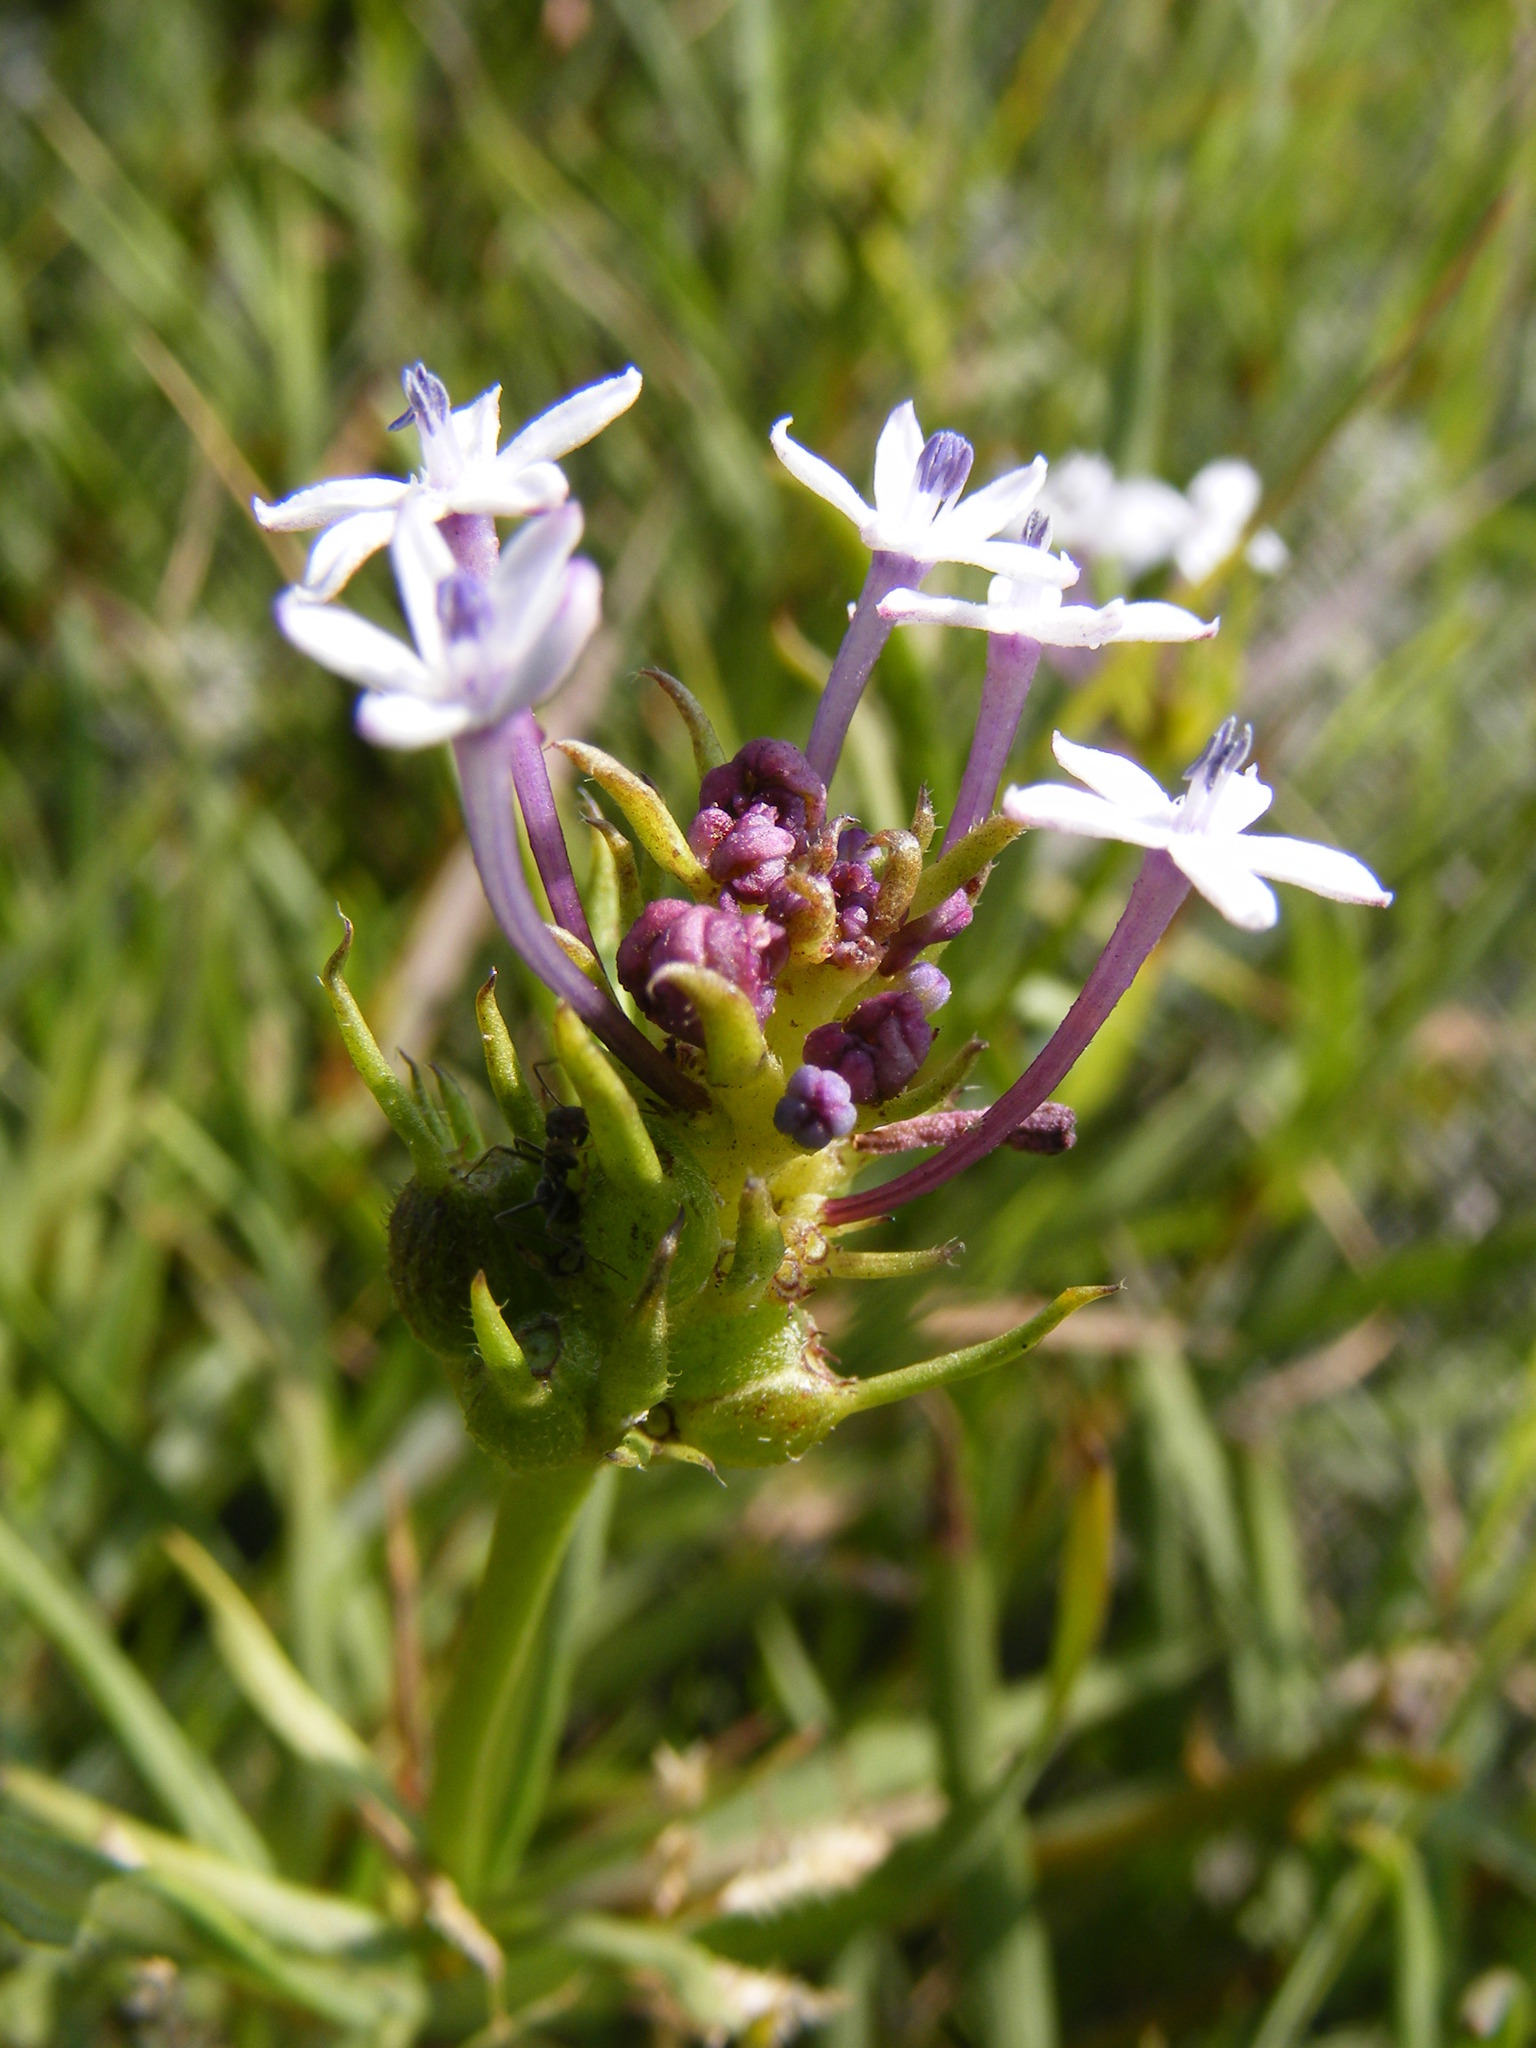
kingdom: Plantae
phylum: Tracheophyta
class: Magnoliopsida
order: Gentianales
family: Rubiaceae
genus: Pentanisia
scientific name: Pentanisia angustifolia
